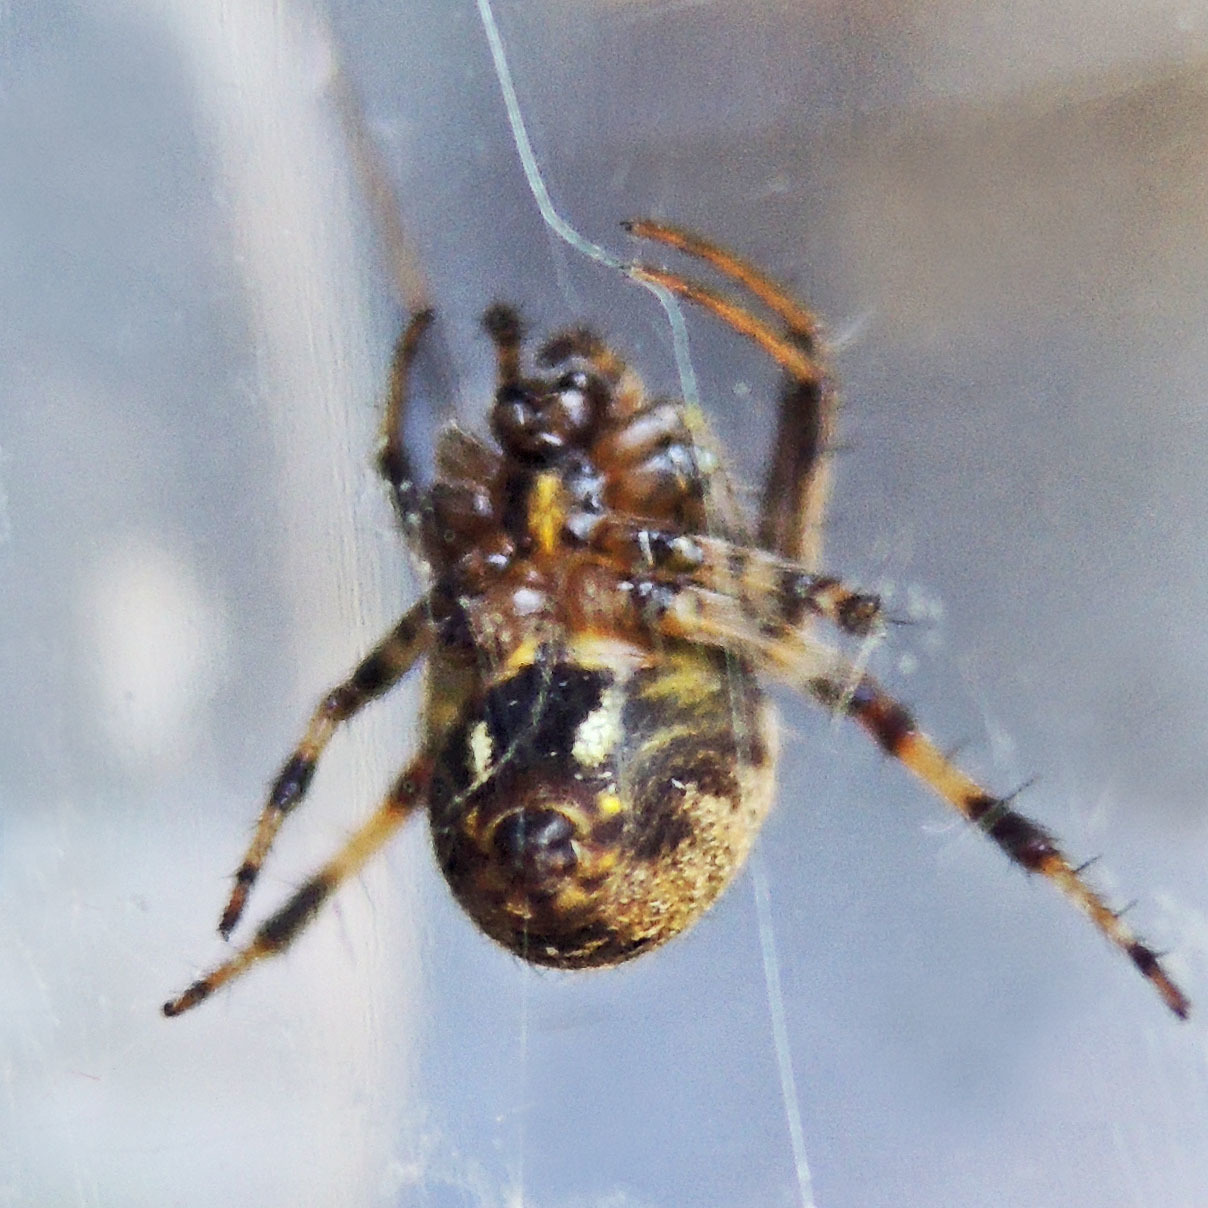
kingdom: Animalia
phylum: Arthropoda
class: Arachnida
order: Araneae
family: Araneidae
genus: Neoscona
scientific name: Neoscona arabesca
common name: Orb weavers
